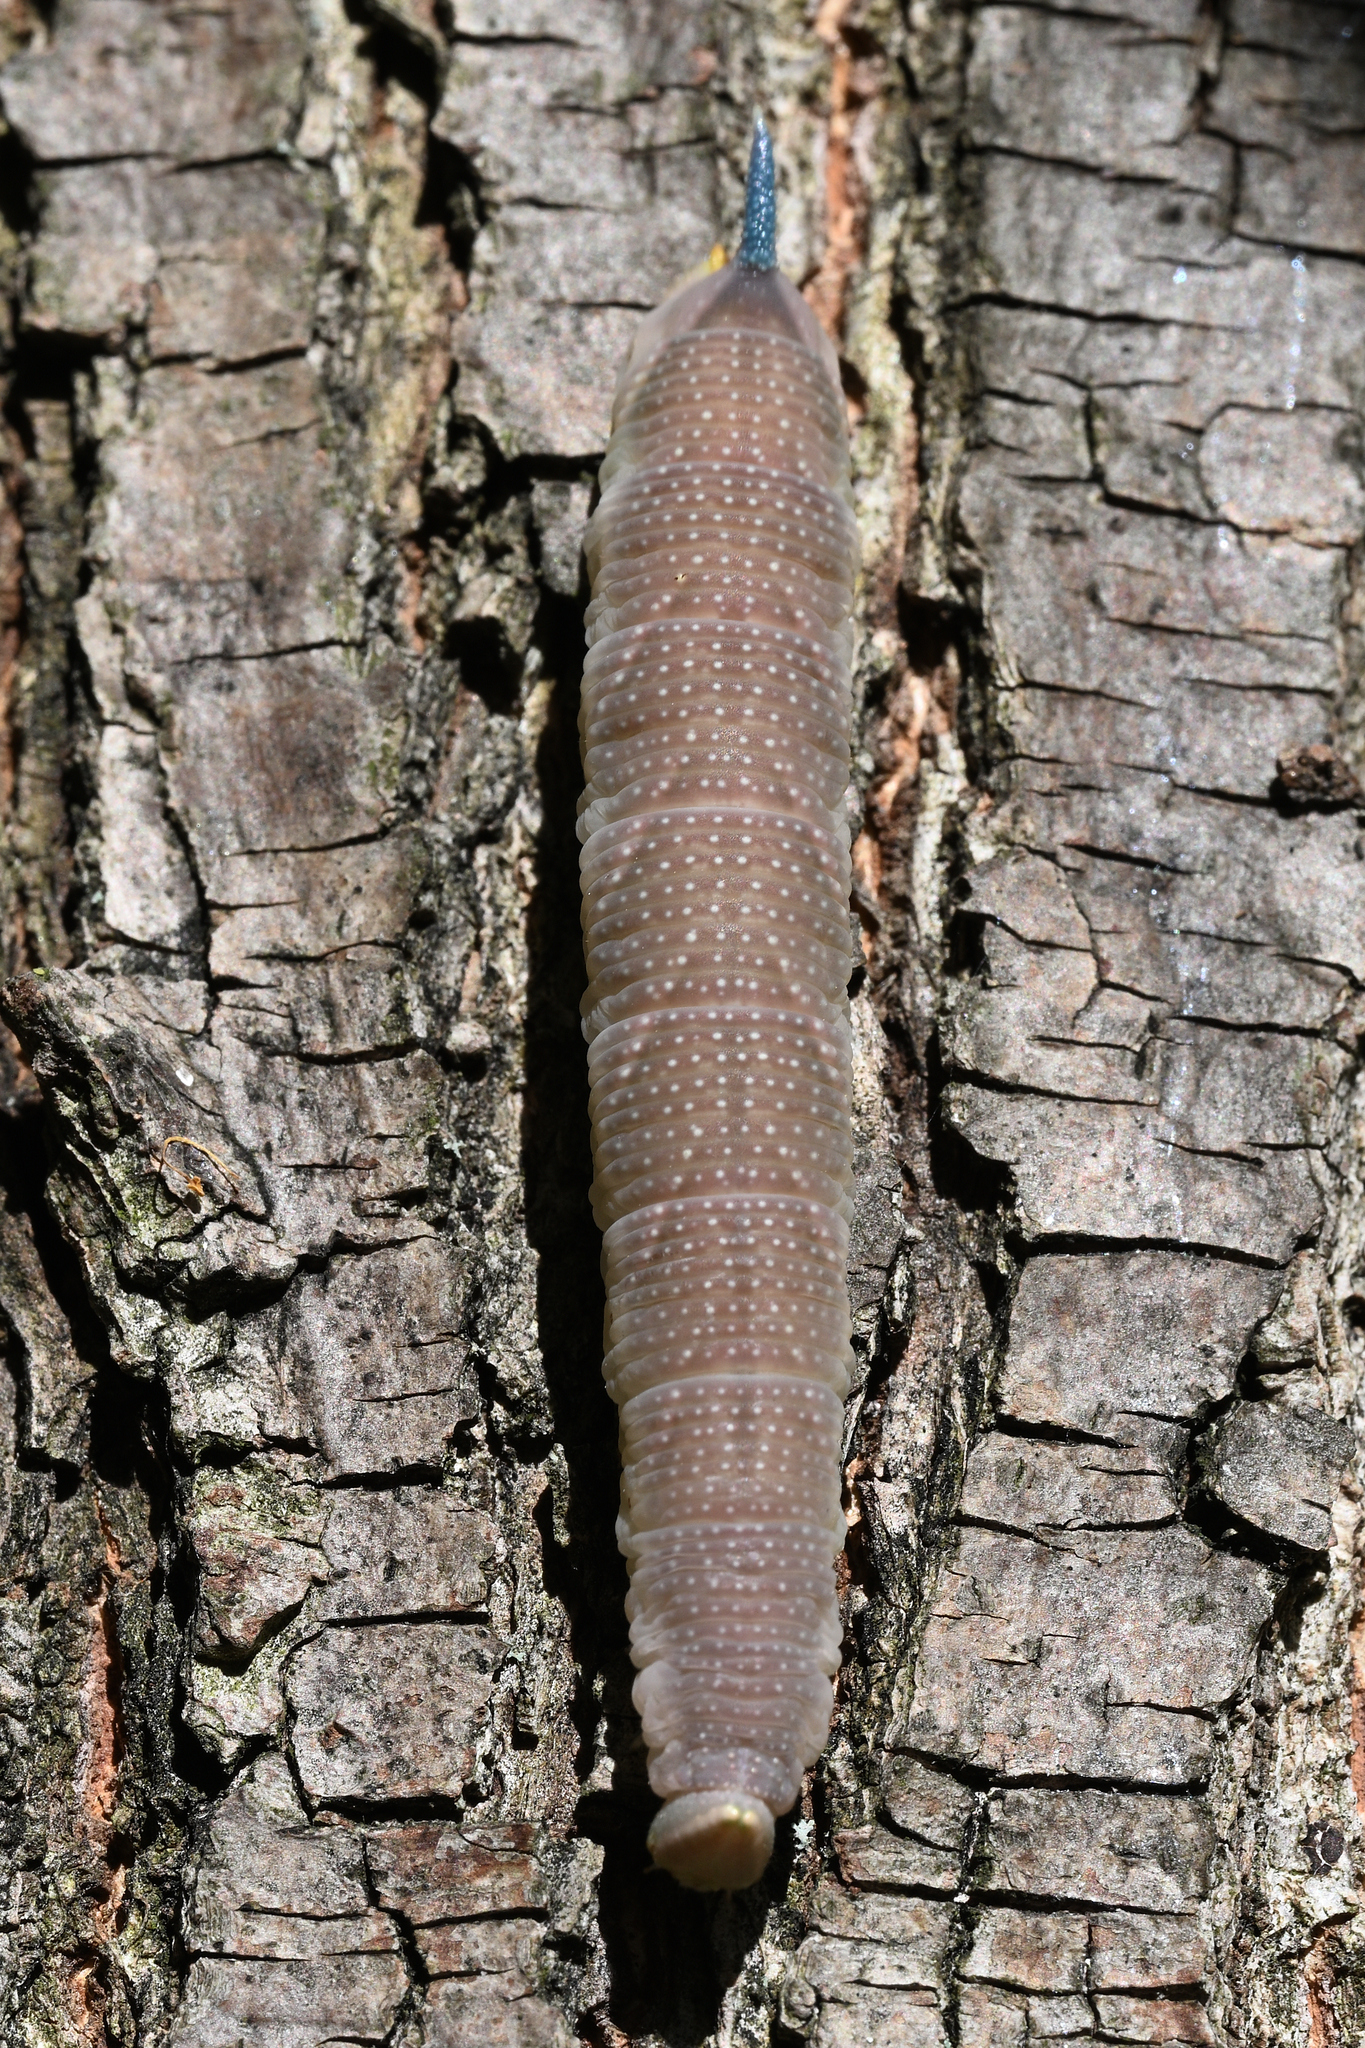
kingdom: Animalia
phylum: Arthropoda
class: Insecta
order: Lepidoptera
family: Sphingidae
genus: Mimas
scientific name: Mimas tiliae
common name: Lime hawk-moth
